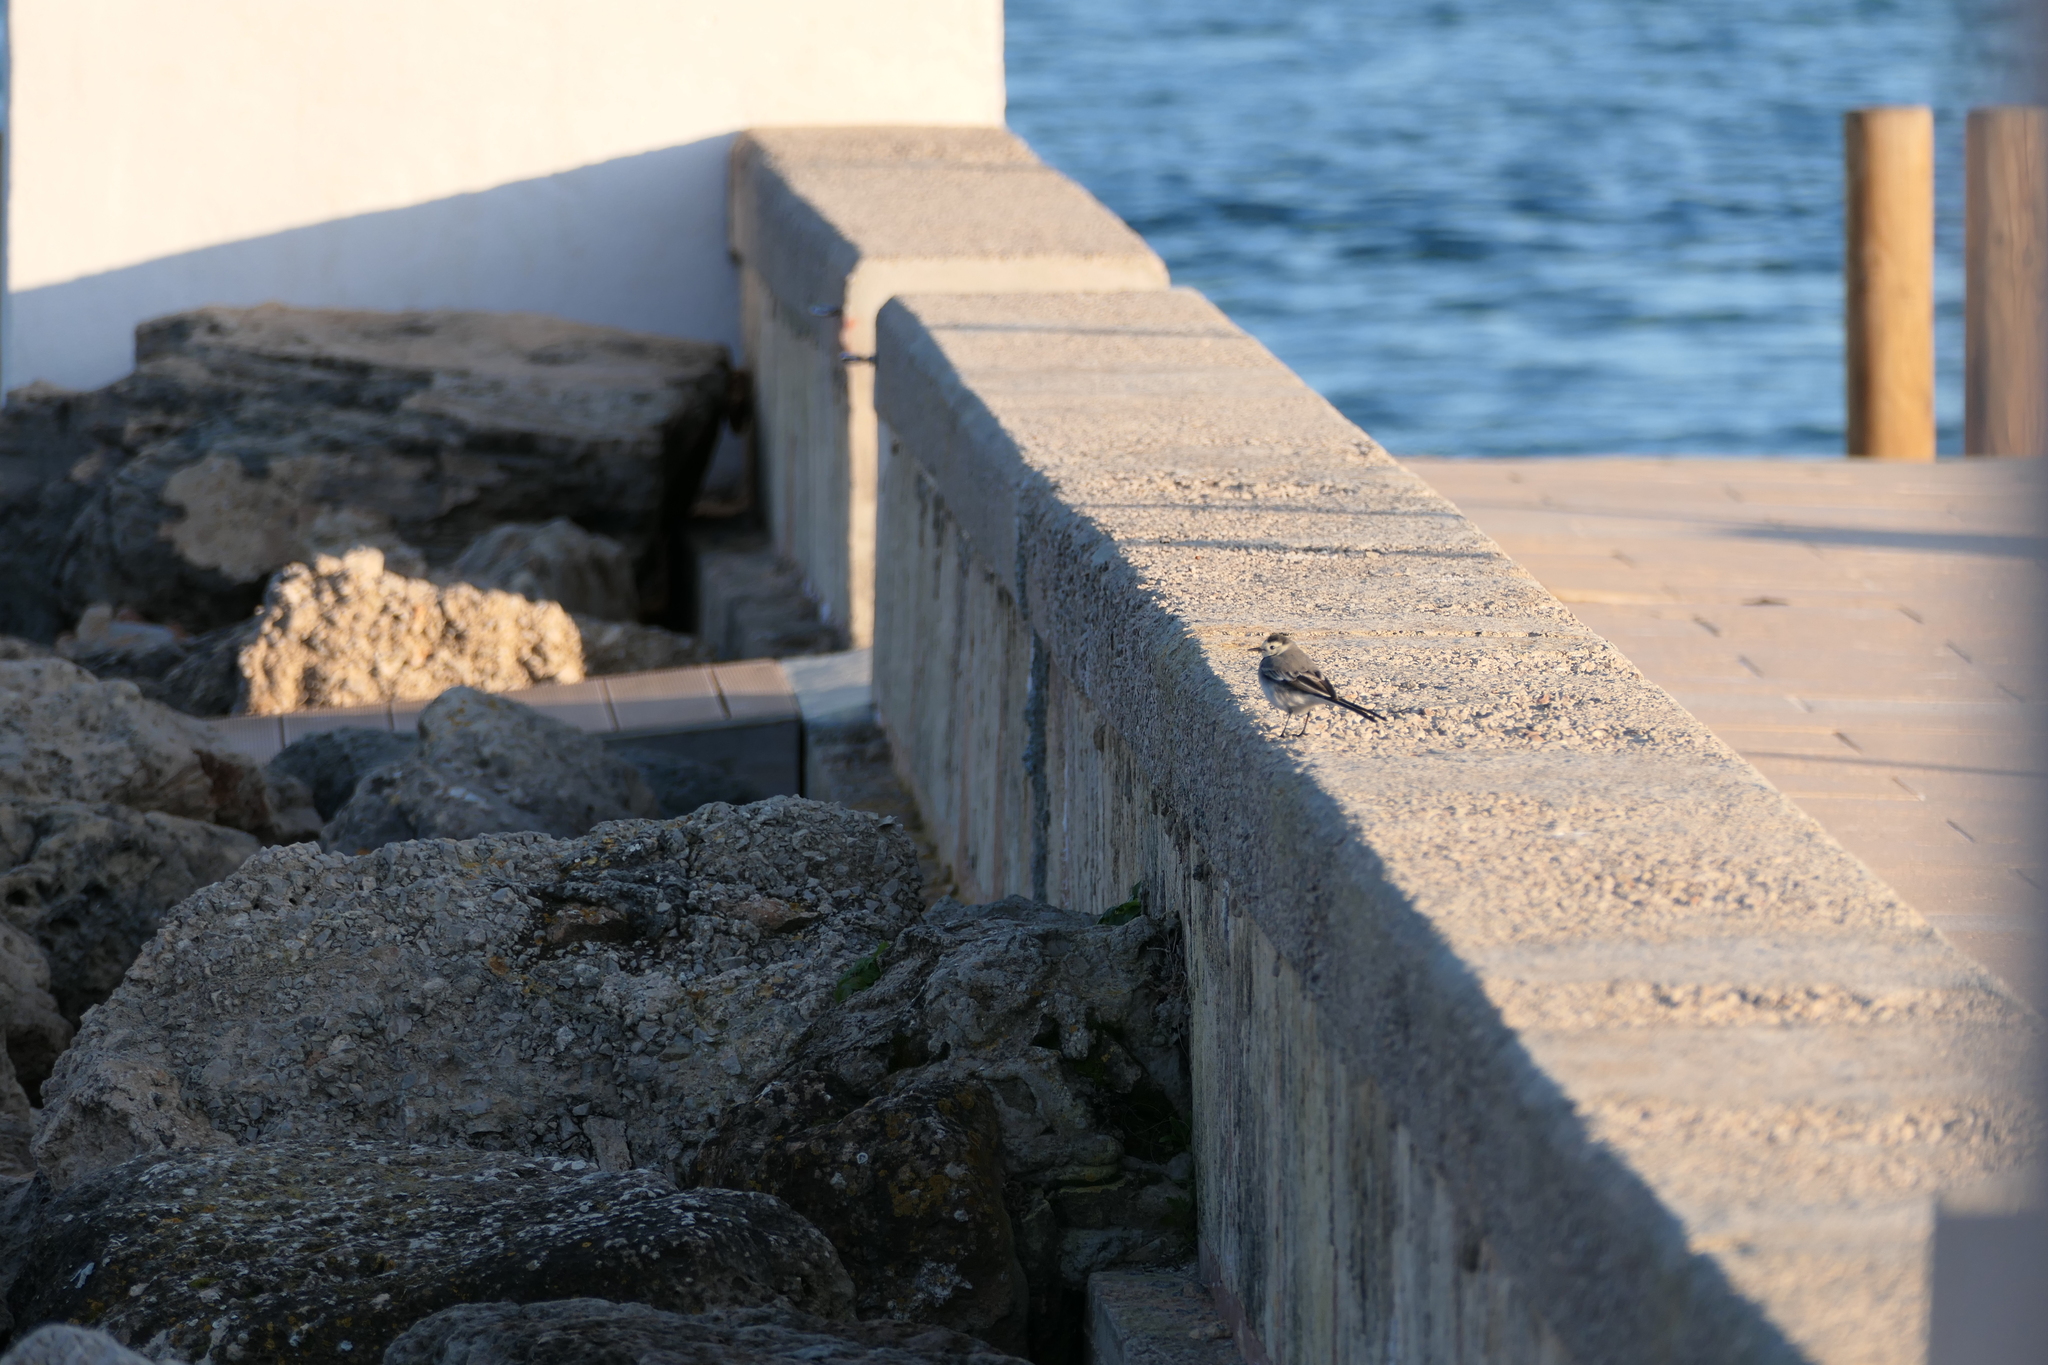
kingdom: Animalia
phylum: Chordata
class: Aves
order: Passeriformes
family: Motacillidae
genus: Motacilla
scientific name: Motacilla alba
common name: White wagtail
